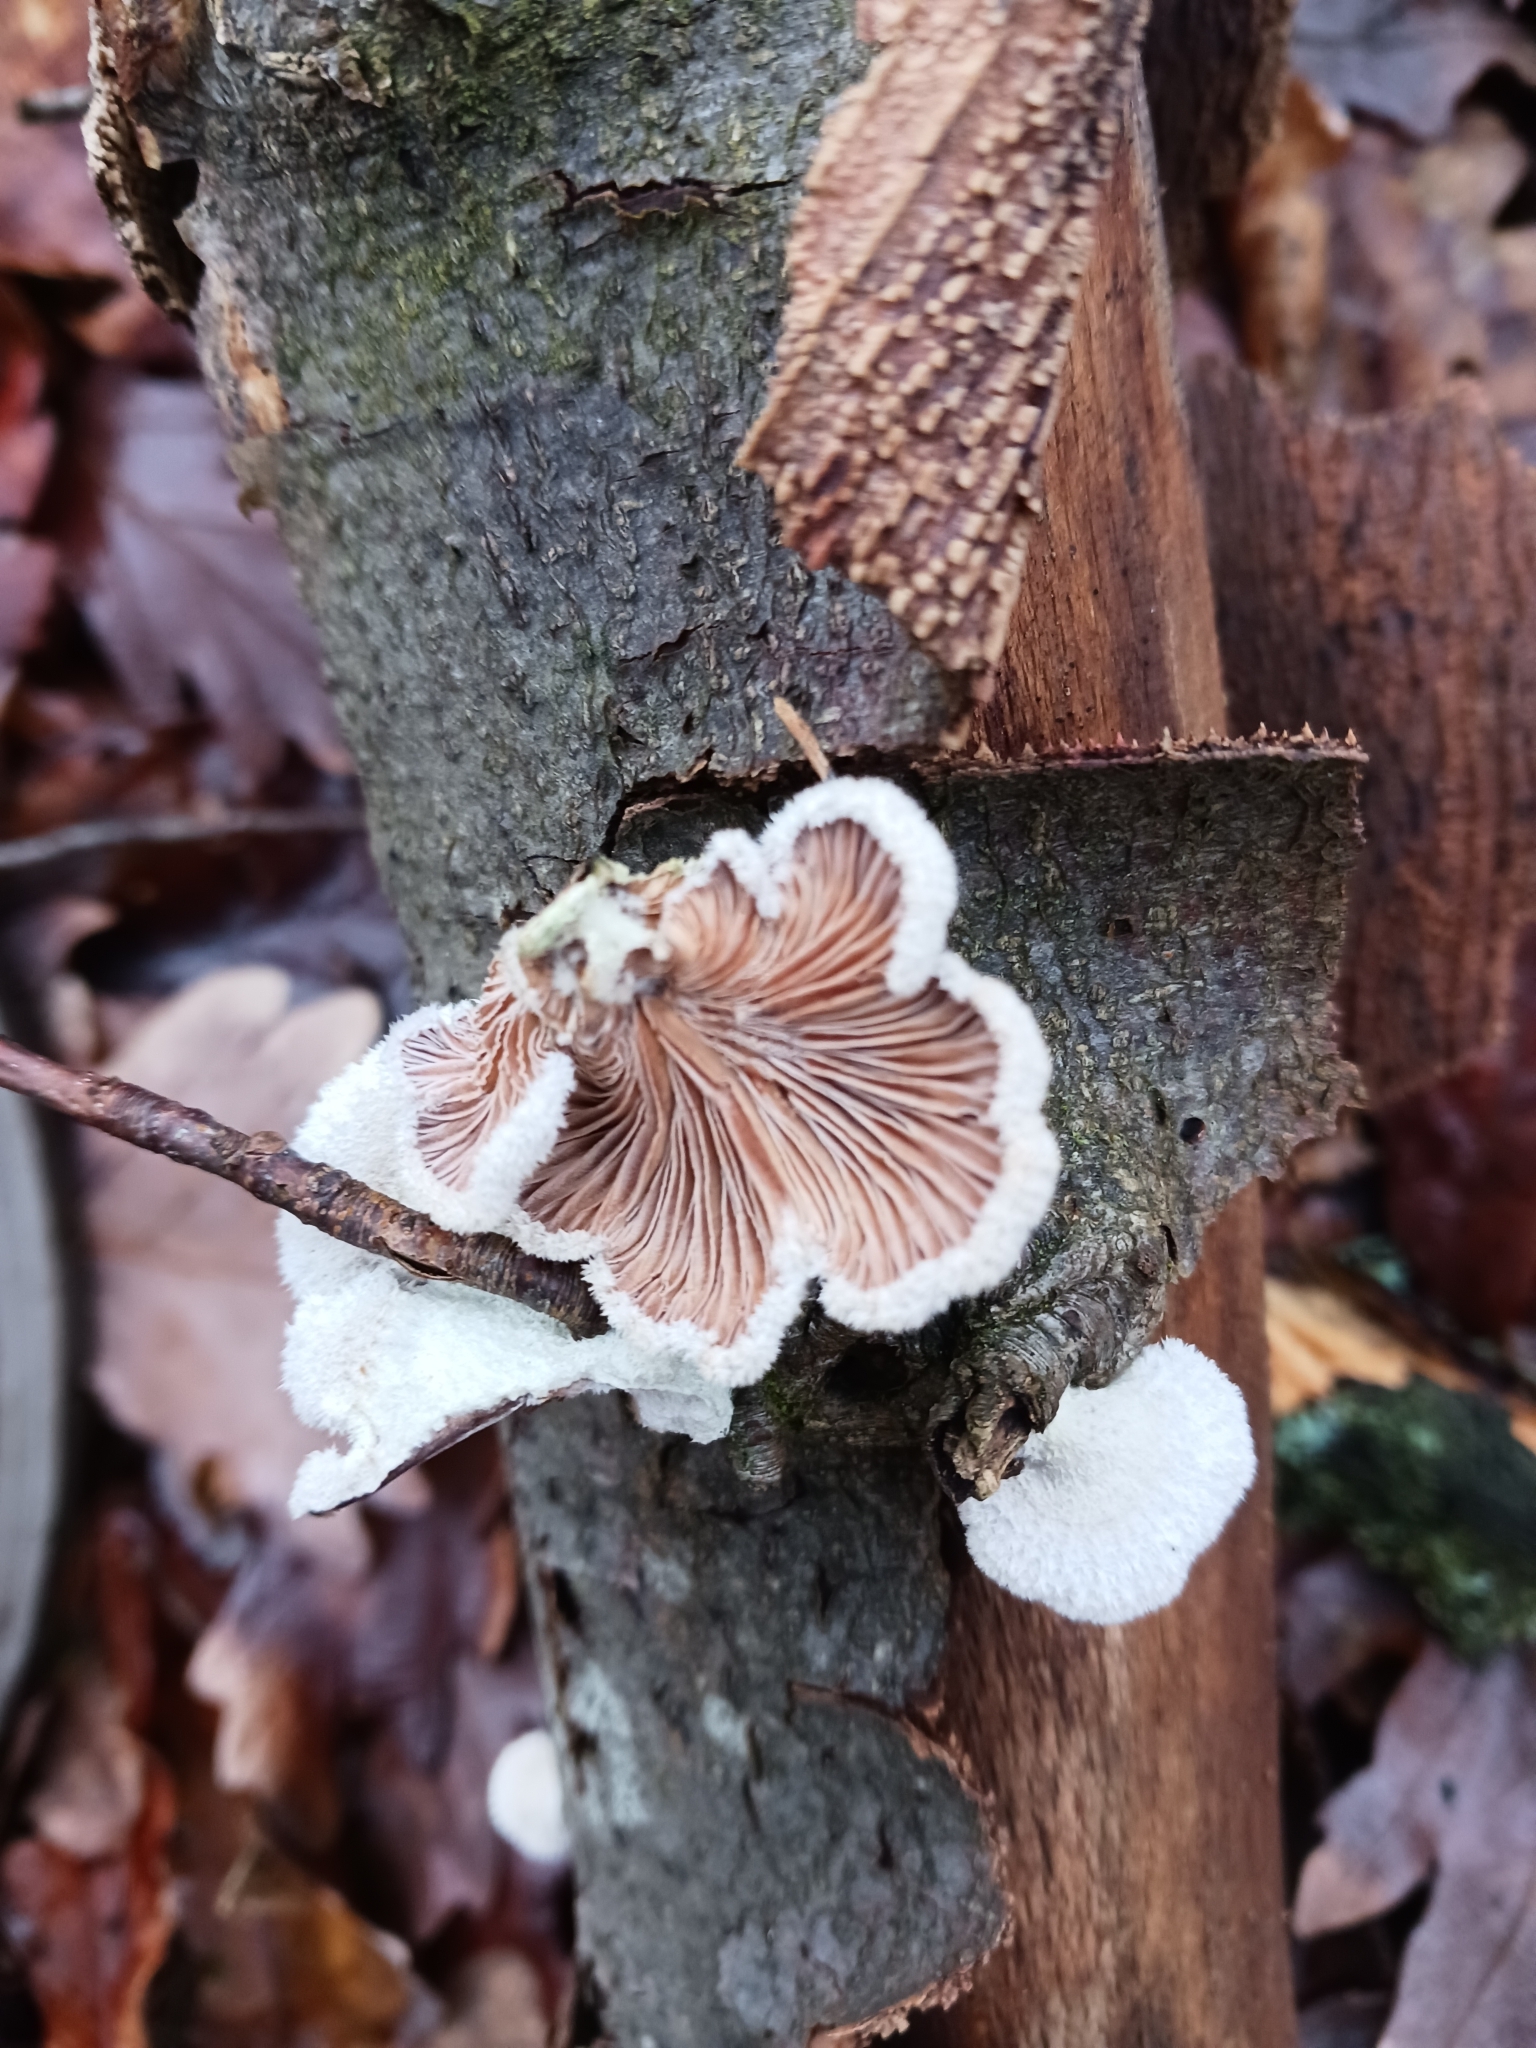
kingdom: Fungi
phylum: Basidiomycota
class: Agaricomycetes
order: Agaricales
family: Schizophyllaceae
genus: Schizophyllum
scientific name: Schizophyllum commune
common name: Common porecrust
